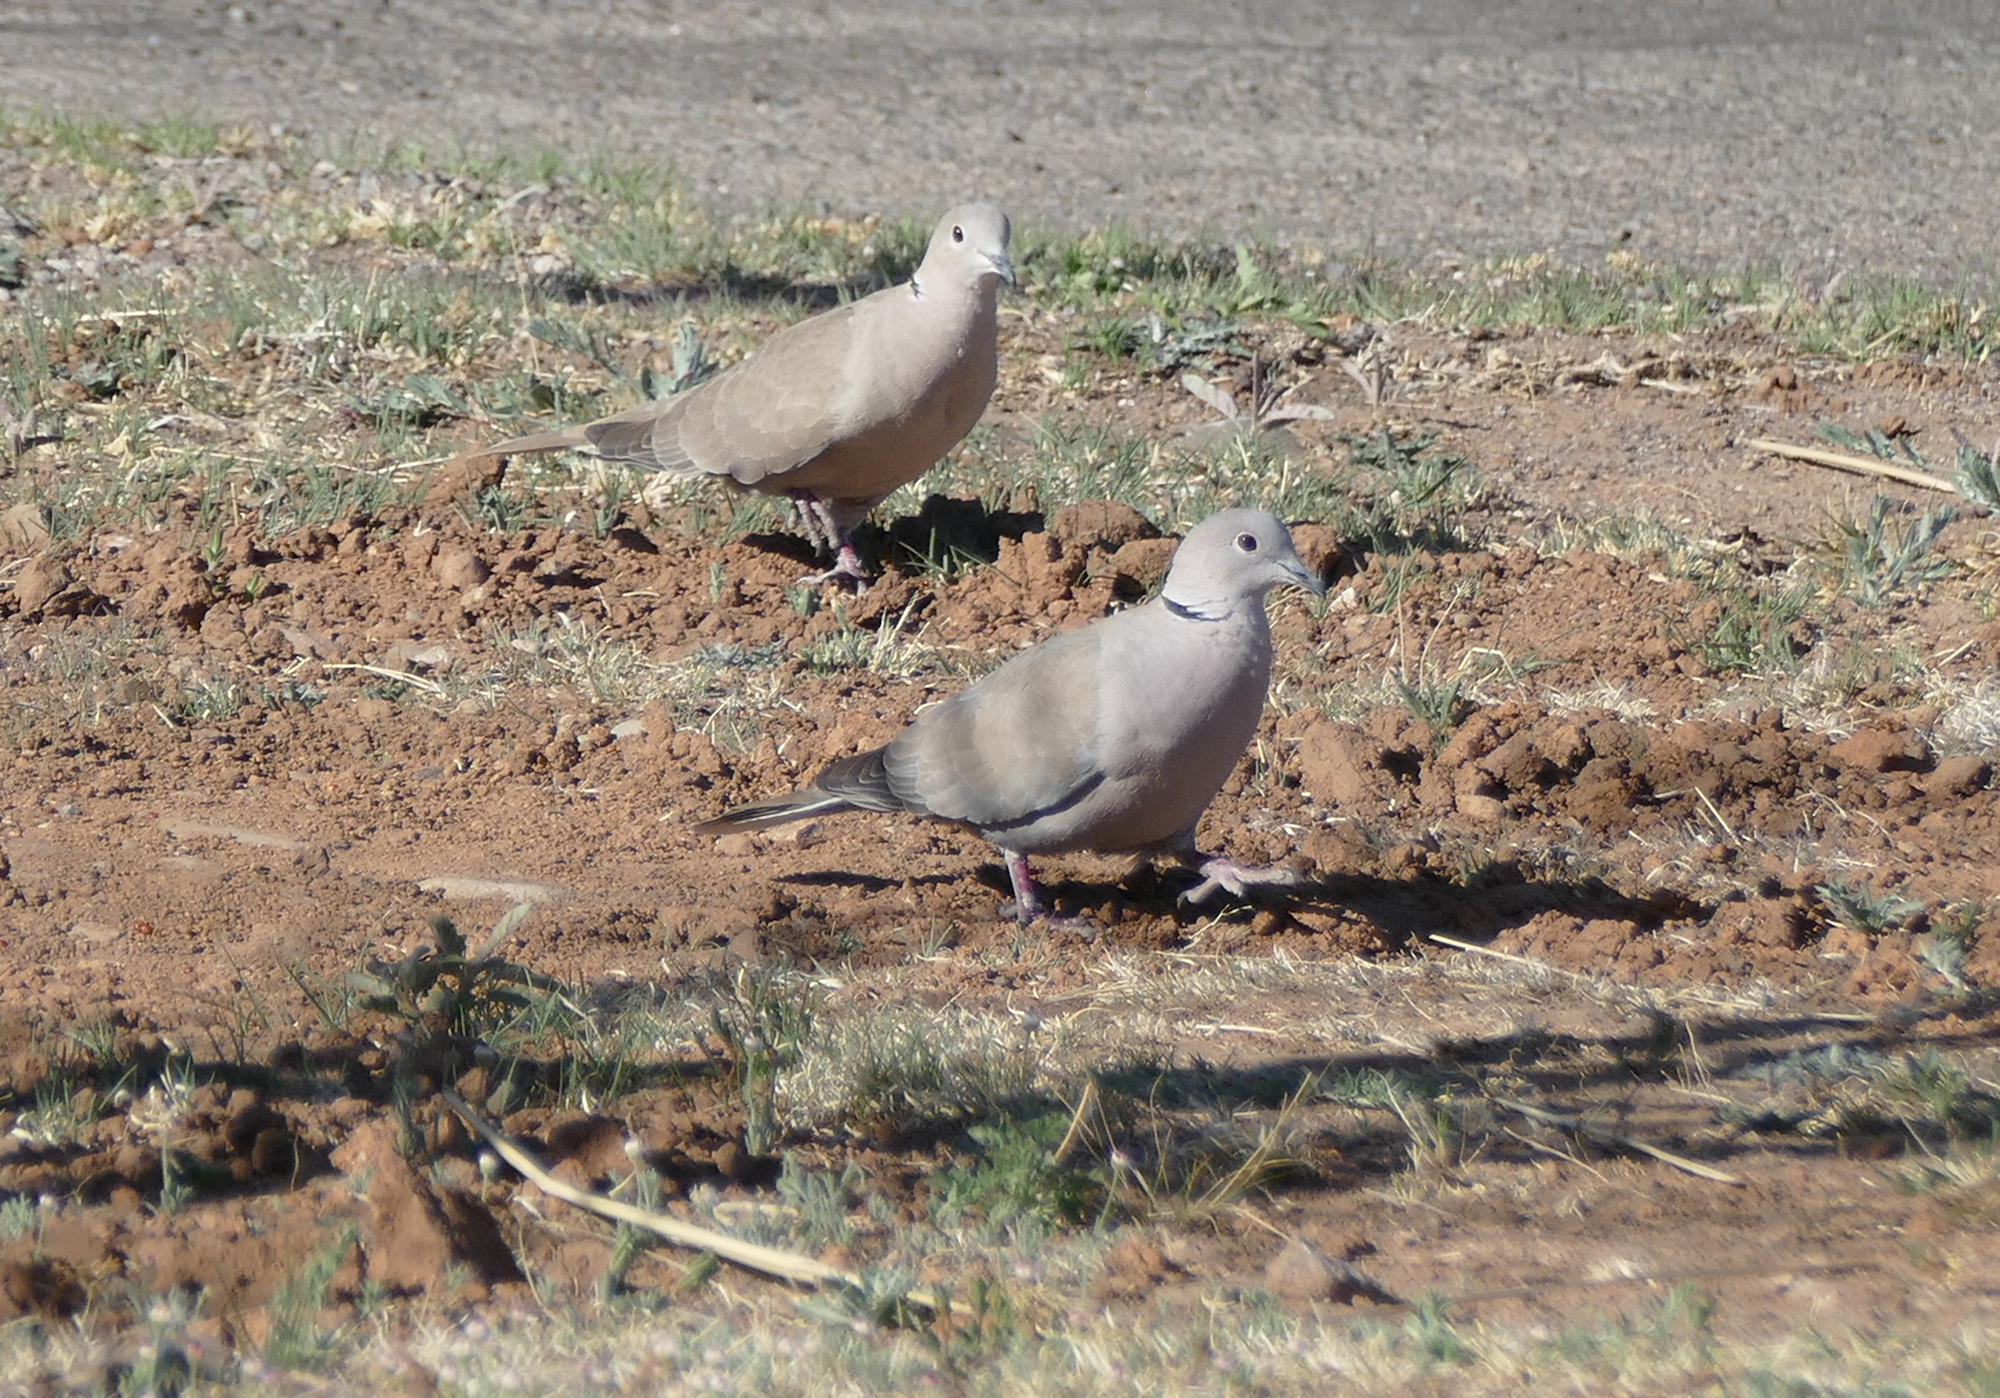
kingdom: Animalia
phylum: Chordata
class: Aves
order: Columbiformes
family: Columbidae
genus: Streptopelia
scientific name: Streptopelia decaocto
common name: Eurasian collared dove
